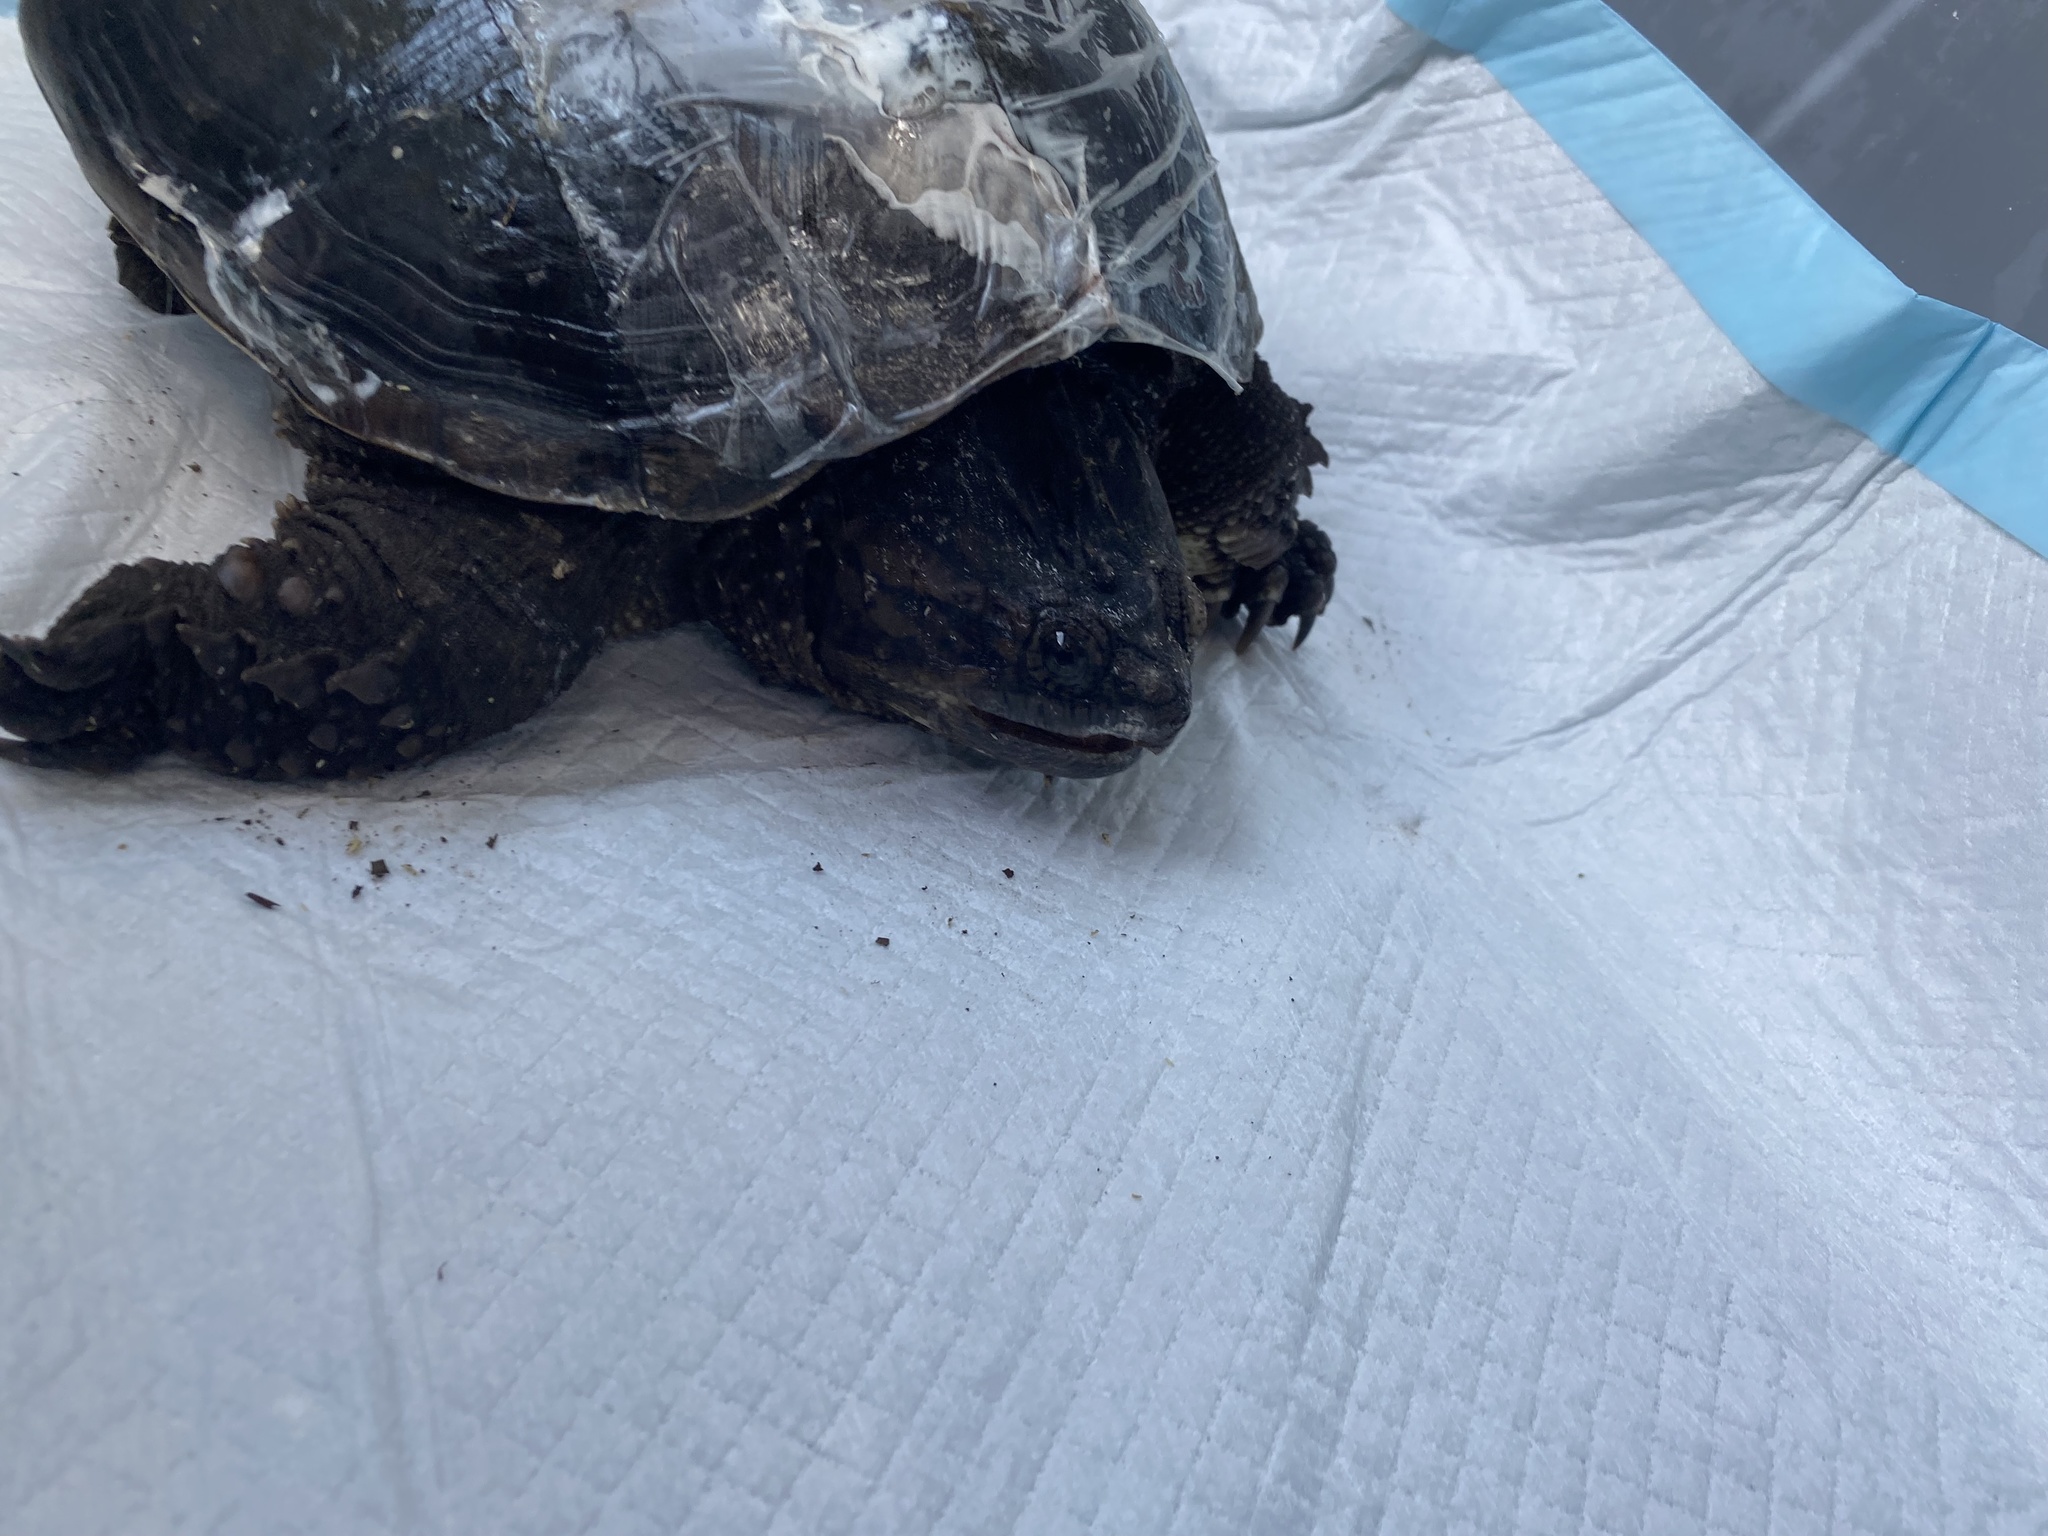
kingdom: Animalia
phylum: Chordata
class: Testudines
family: Chelydridae
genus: Chelydra
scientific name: Chelydra serpentina
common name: Common snapping turtle
